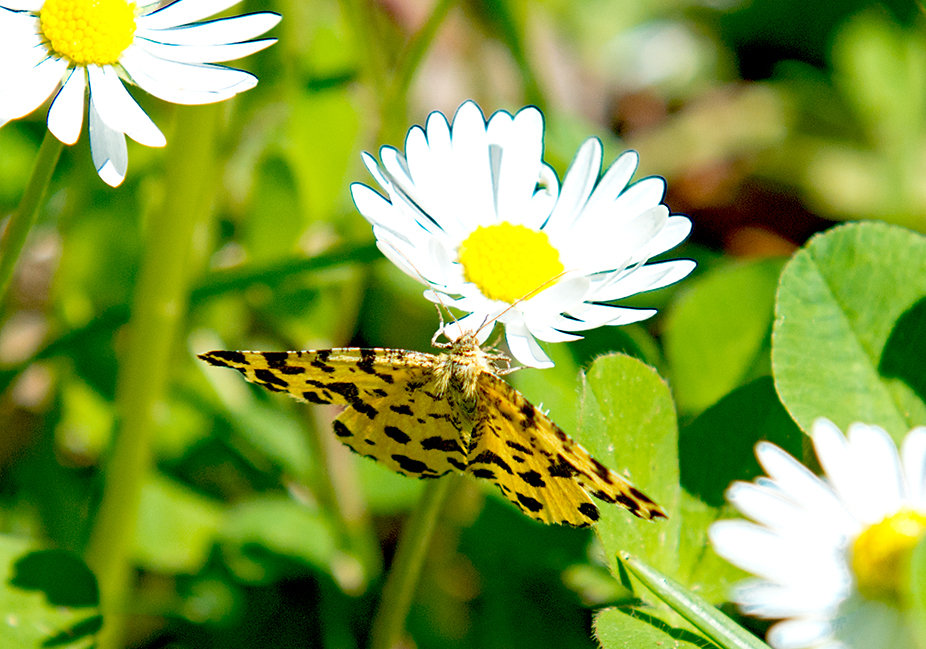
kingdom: Animalia
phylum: Arthropoda
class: Insecta
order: Lepidoptera
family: Geometridae
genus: Pseudopanthera
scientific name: Pseudopanthera macularia
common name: Speckled yellow
